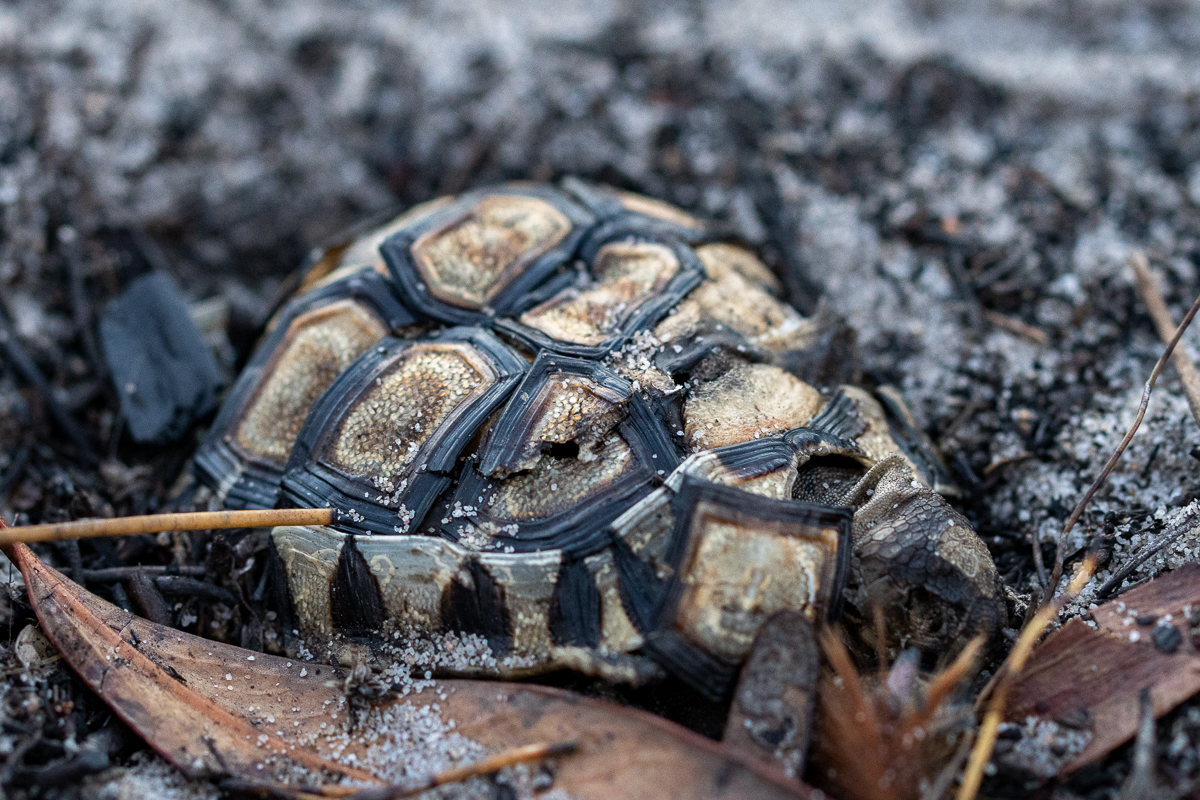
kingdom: Animalia
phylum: Chordata
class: Testudines
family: Testudinidae
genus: Chersina
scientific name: Chersina angulata
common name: South african bowsprit tortoise
